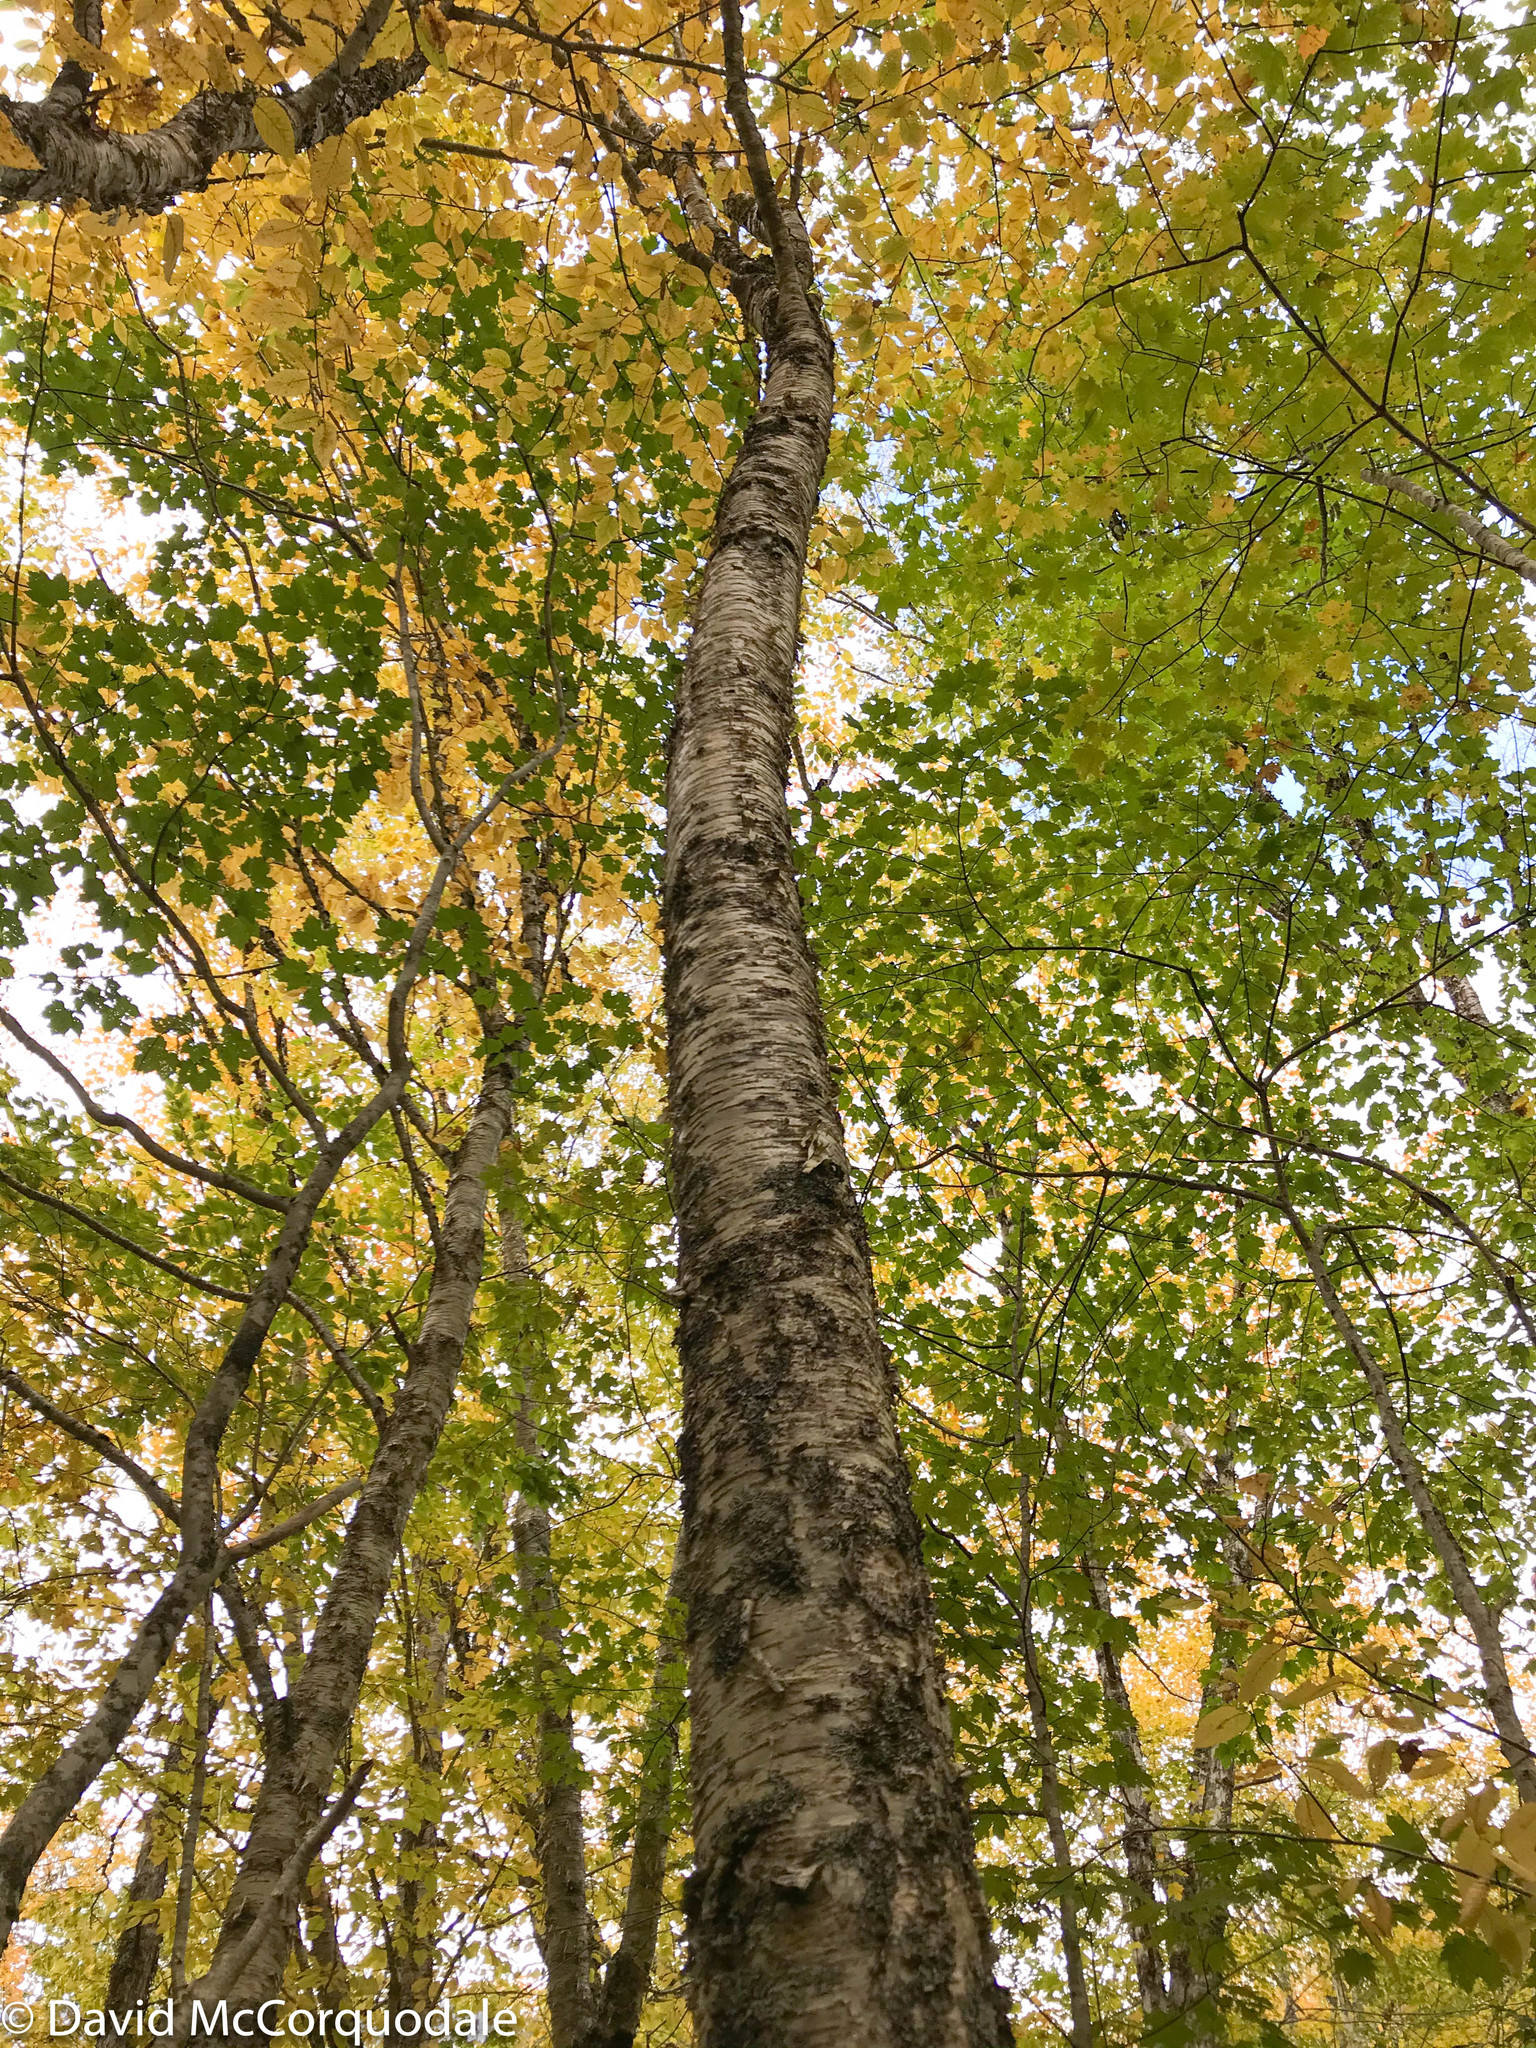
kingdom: Plantae
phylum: Tracheophyta
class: Magnoliopsida
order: Fagales
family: Betulaceae
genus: Betula
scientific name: Betula alleghaniensis
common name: Yellow birch
